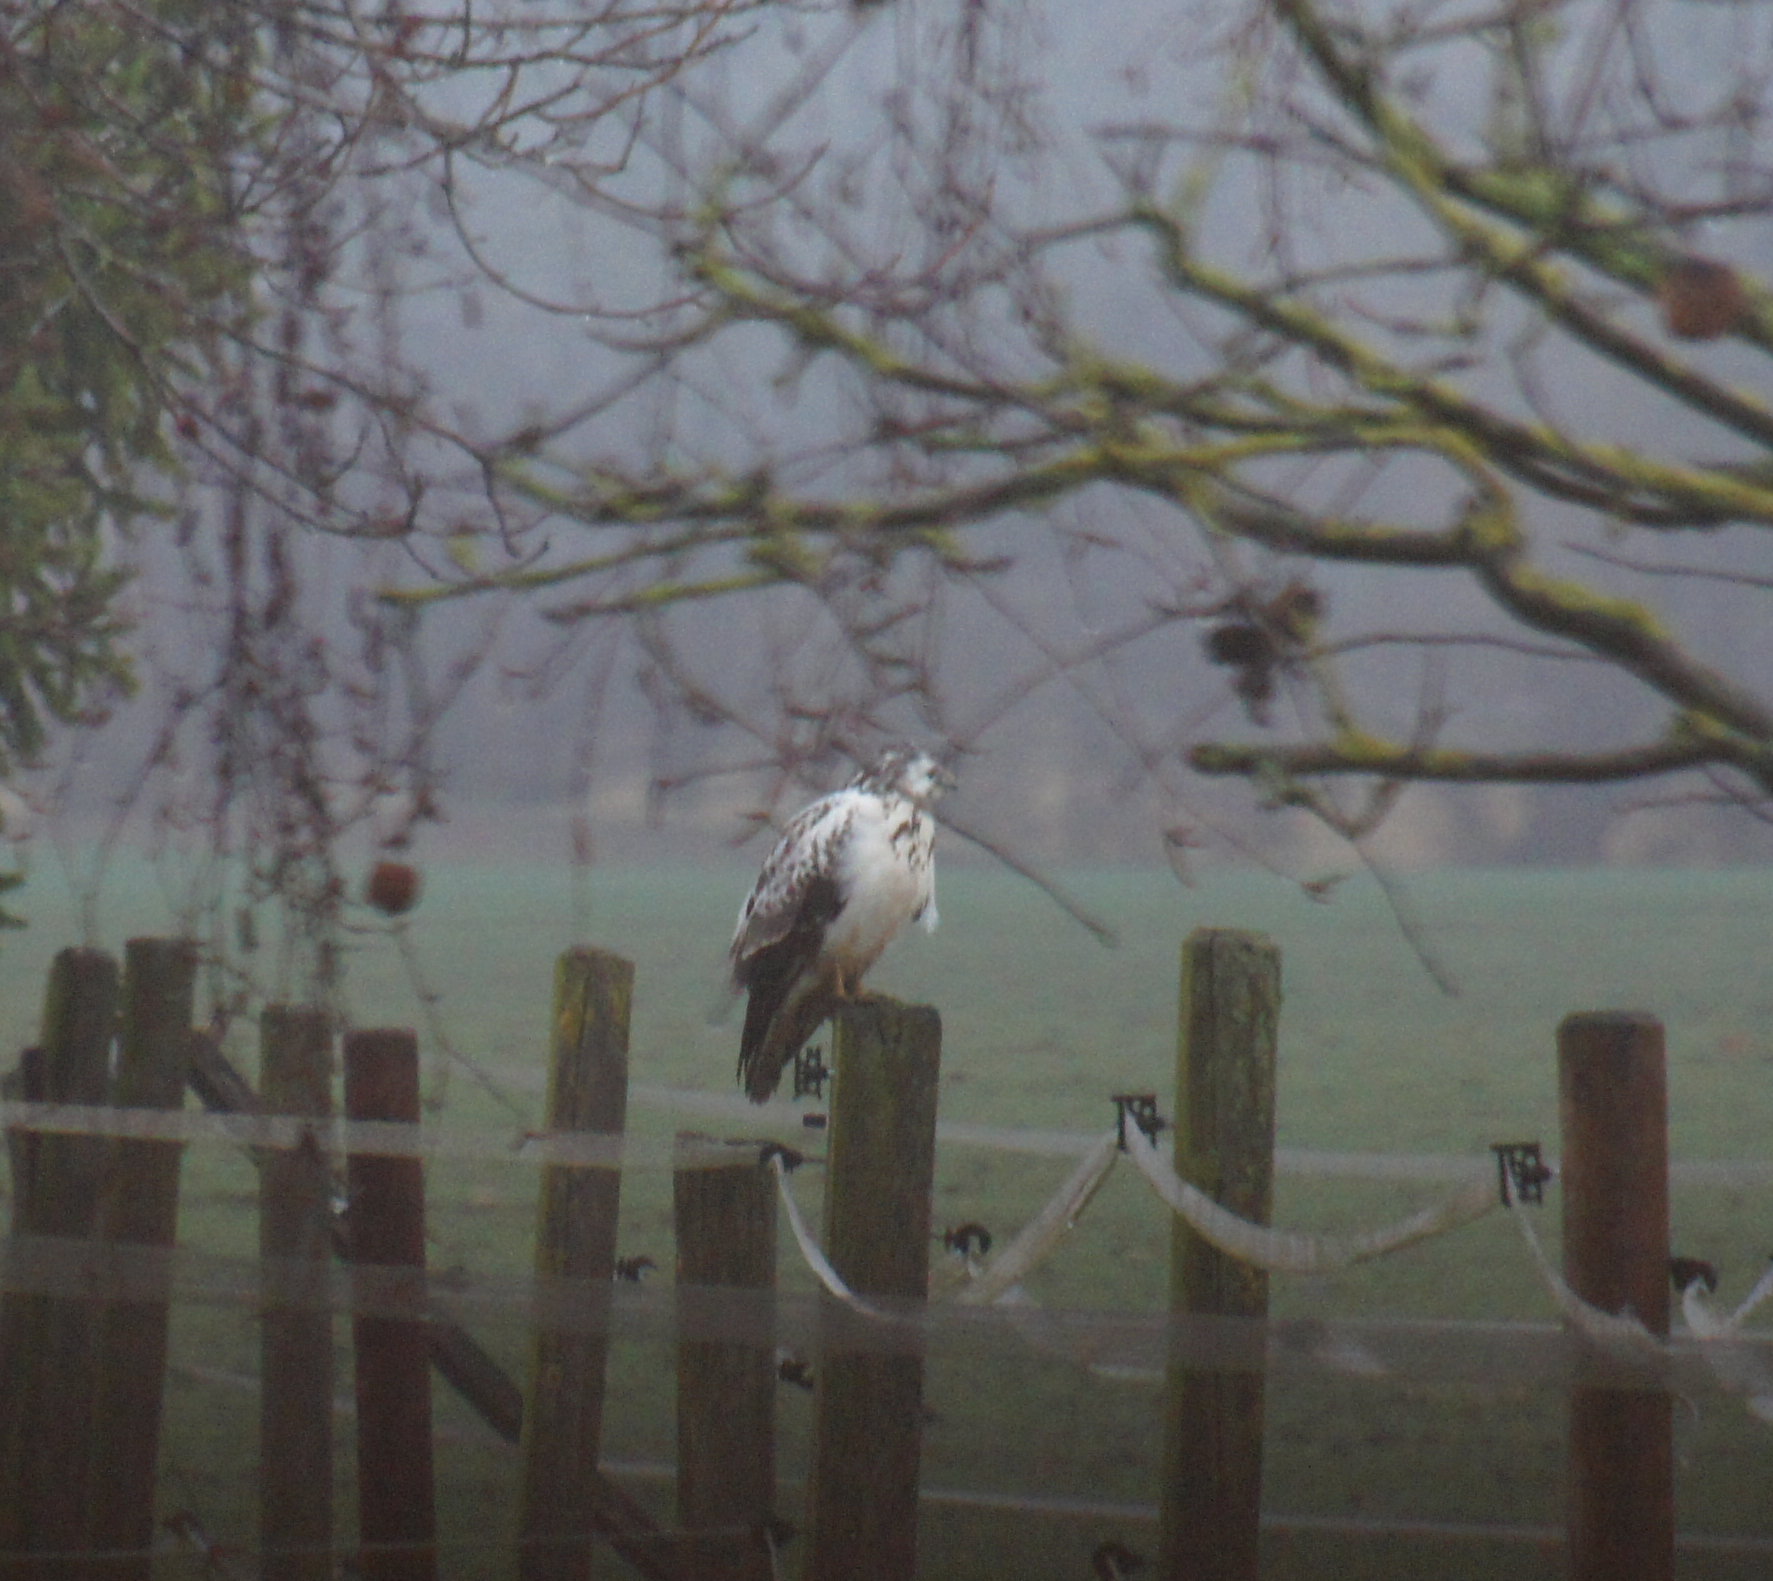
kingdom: Animalia
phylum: Chordata
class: Aves
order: Accipitriformes
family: Accipitridae
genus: Buteo
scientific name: Buteo buteo
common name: Common buzzard
